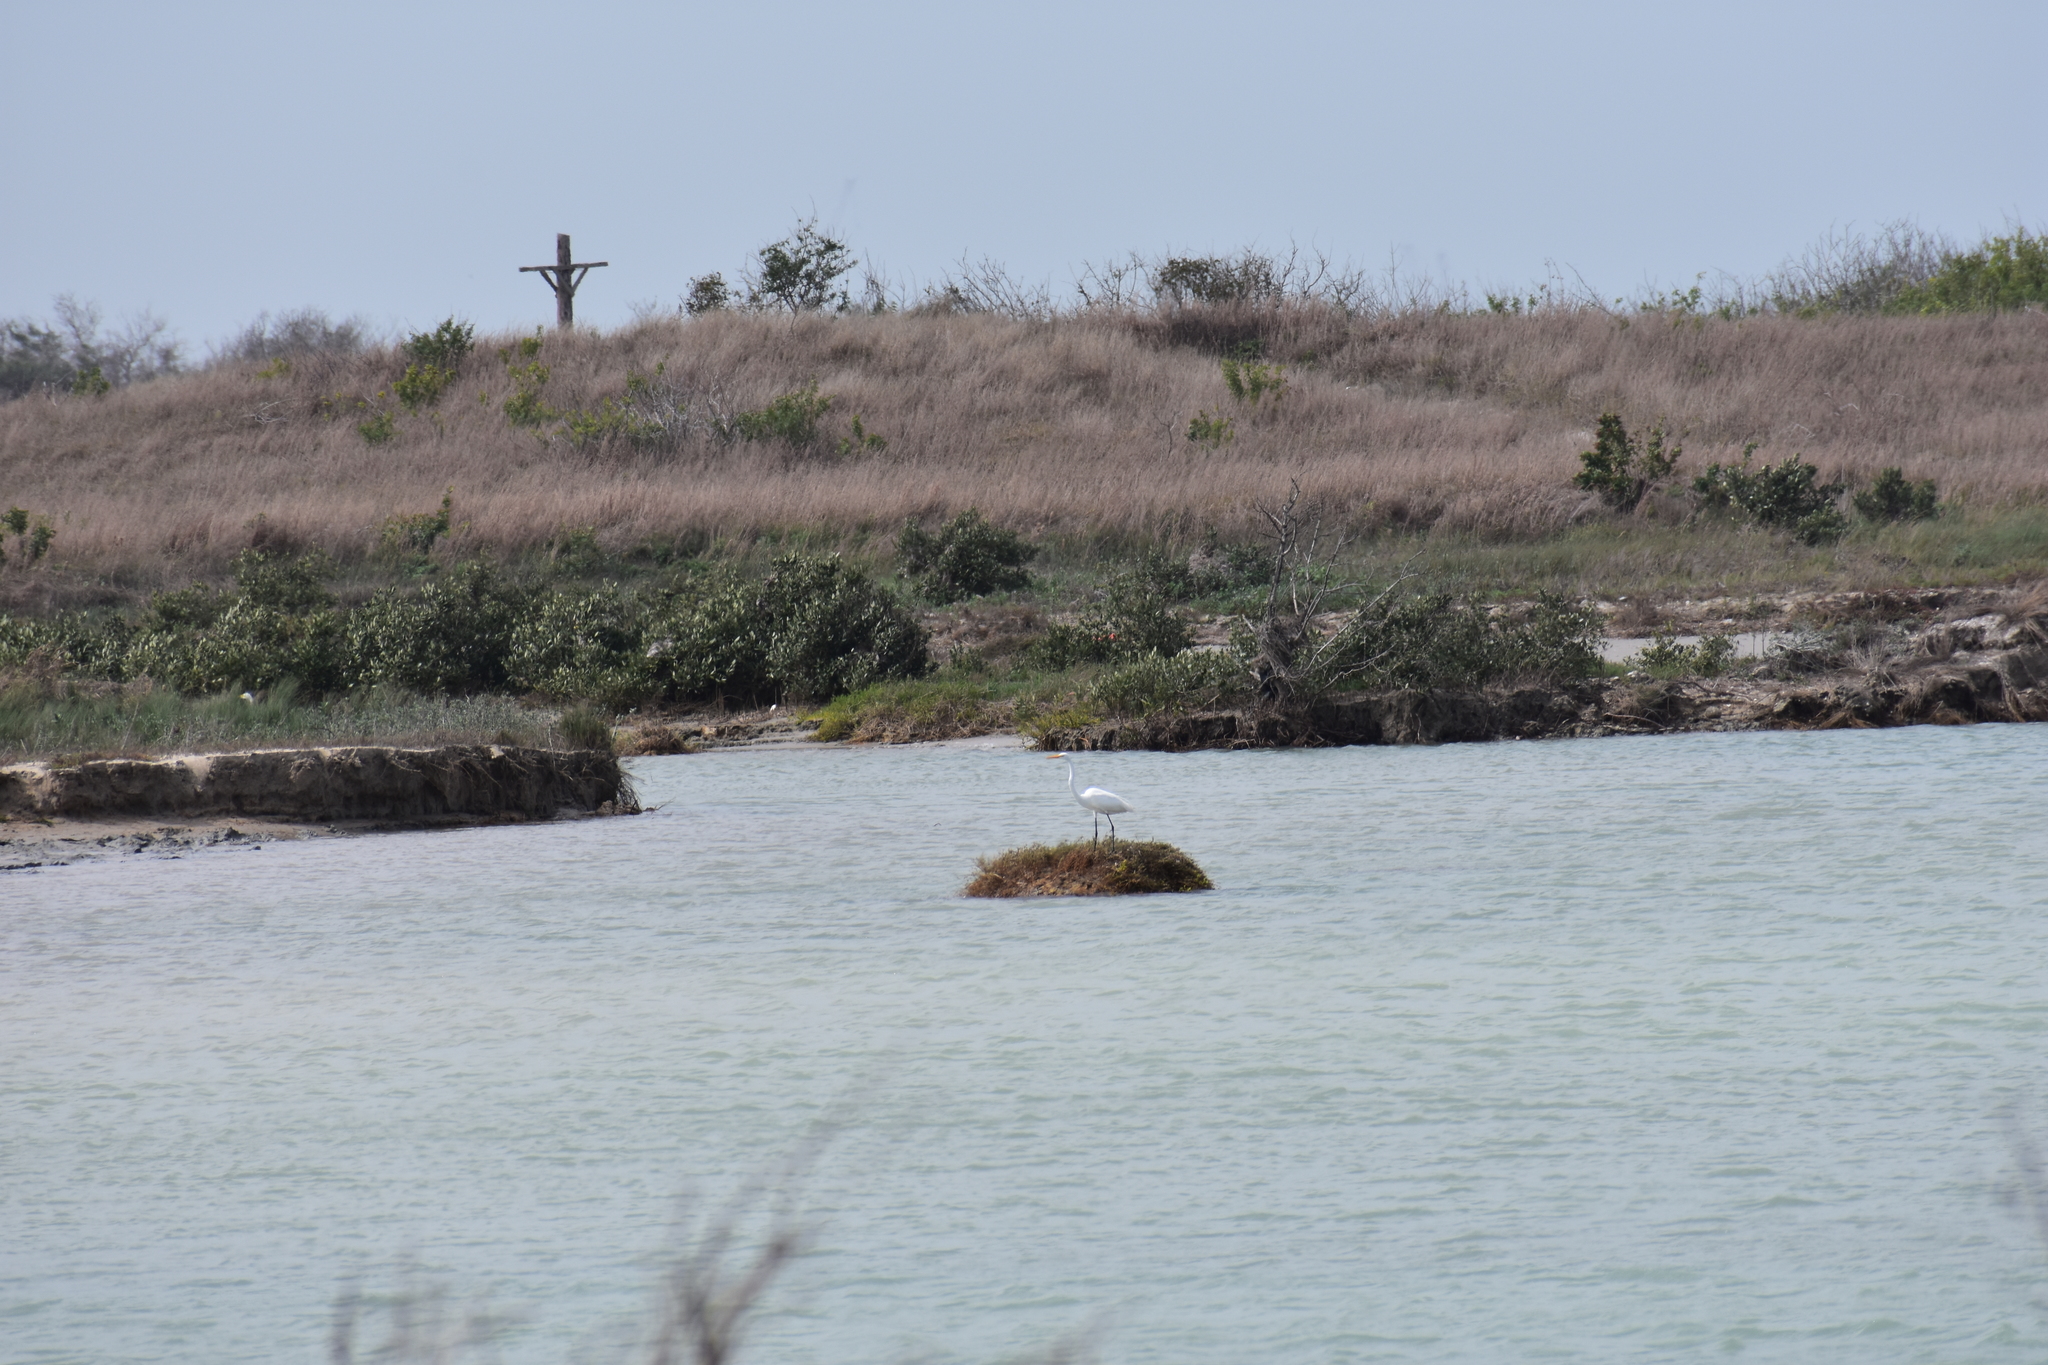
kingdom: Animalia
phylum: Chordata
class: Aves
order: Pelecaniformes
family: Ardeidae
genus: Ardea
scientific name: Ardea alba
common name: Great egret
